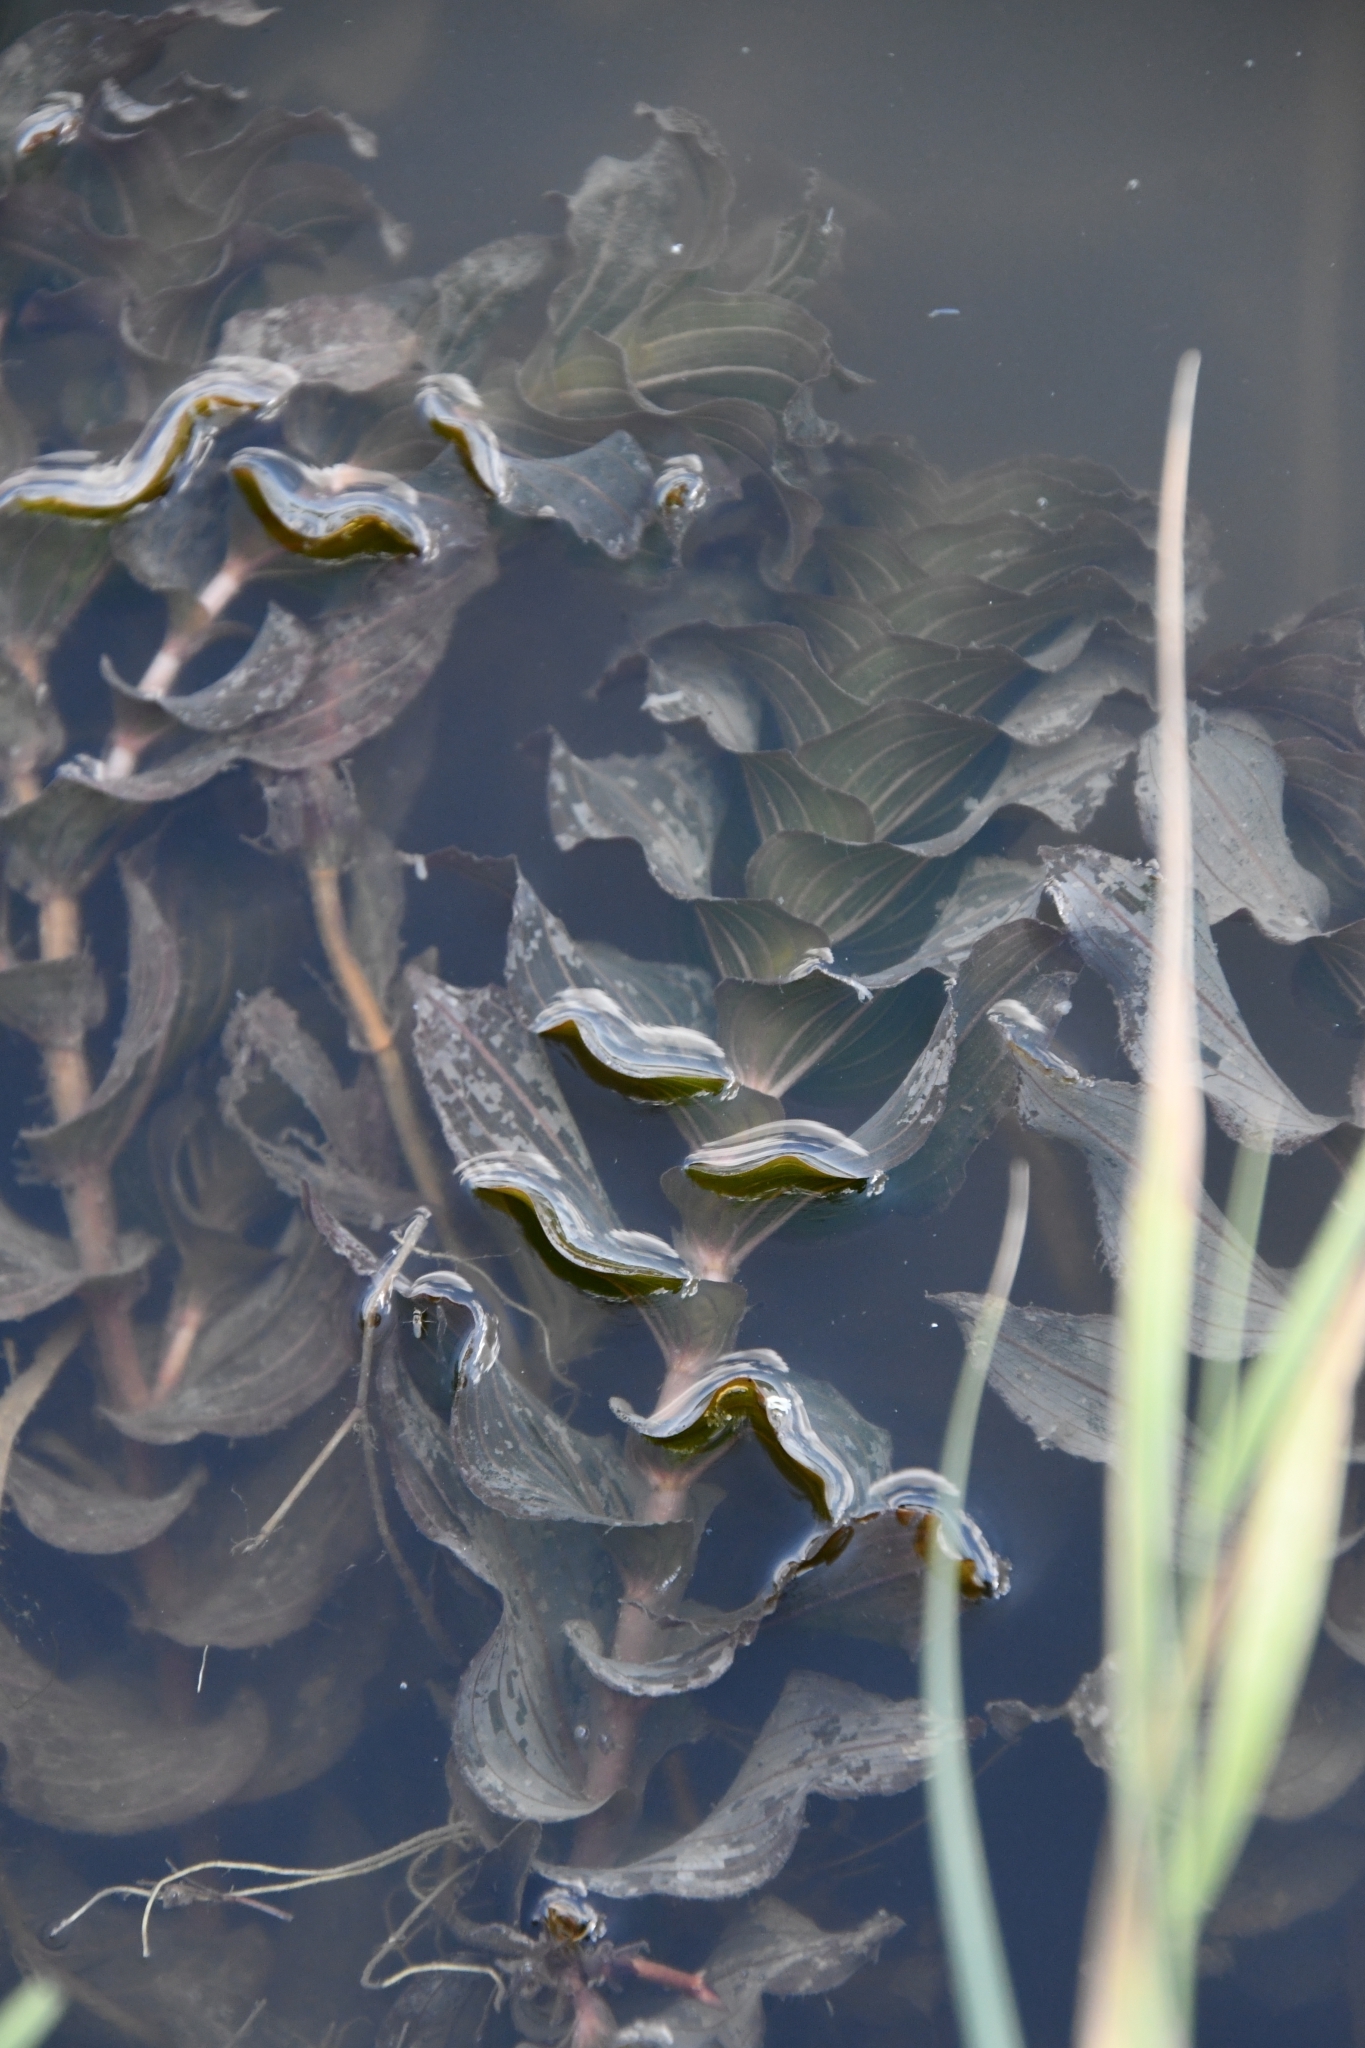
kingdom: Plantae
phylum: Tracheophyta
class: Liliopsida
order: Alismatales
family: Potamogetonaceae
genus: Potamogeton
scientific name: Potamogeton perfoliatus
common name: Perfoliate pondweed
